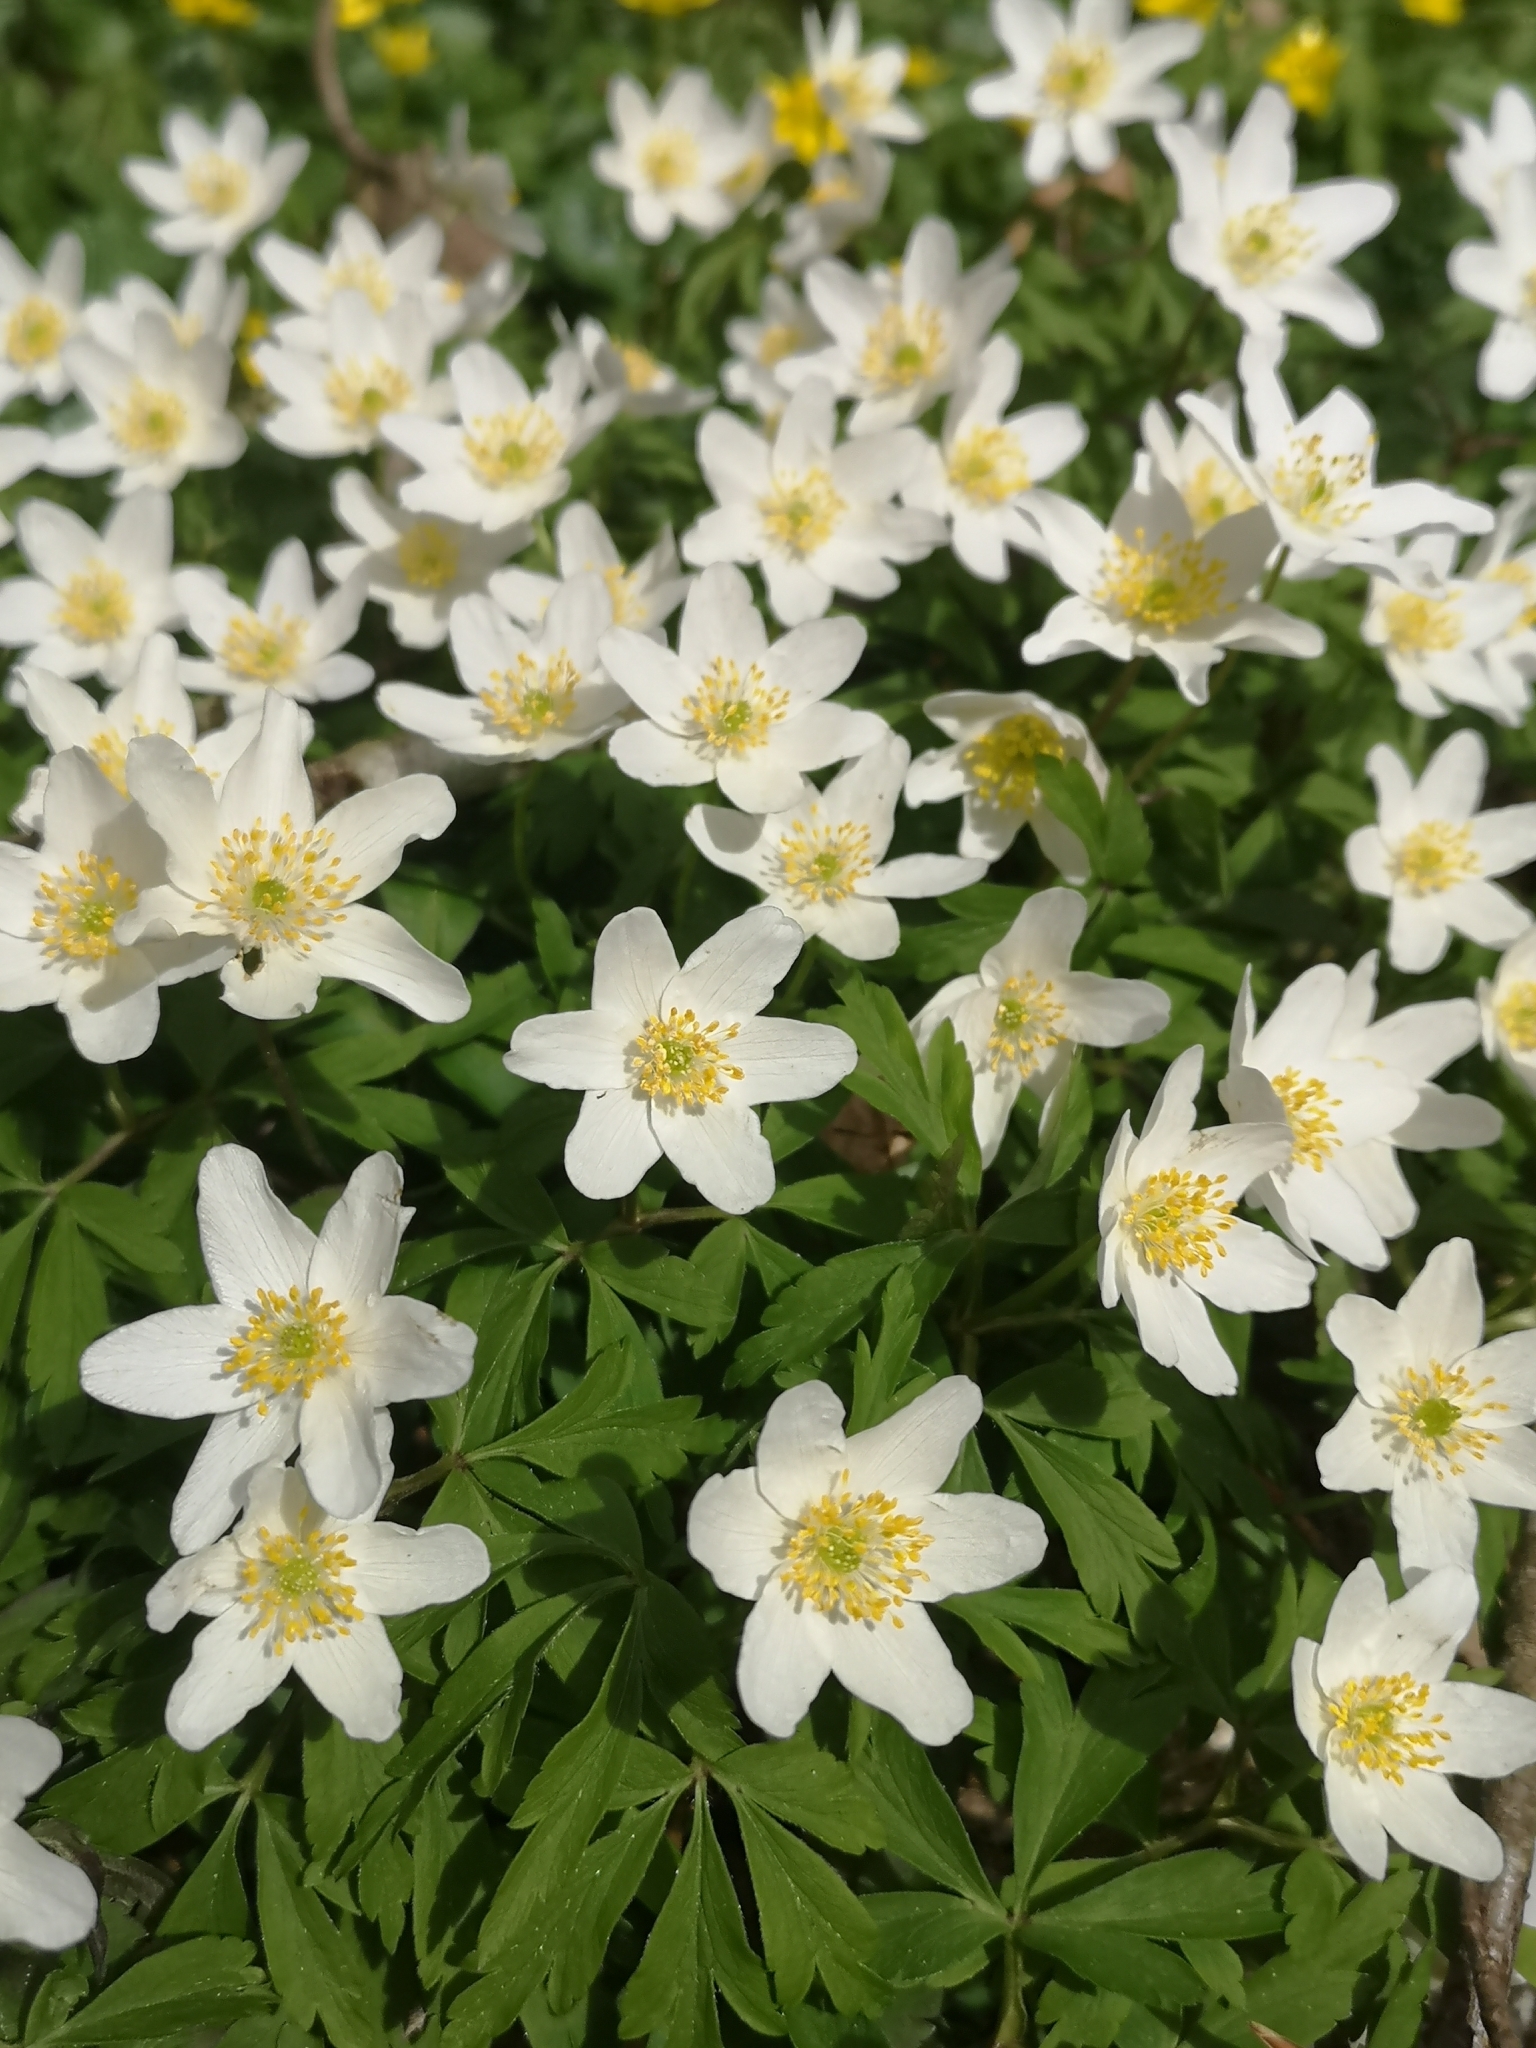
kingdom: Plantae
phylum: Tracheophyta
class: Magnoliopsida
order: Ranunculales
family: Ranunculaceae
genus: Anemone
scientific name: Anemone nemorosa
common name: Wood anemone
